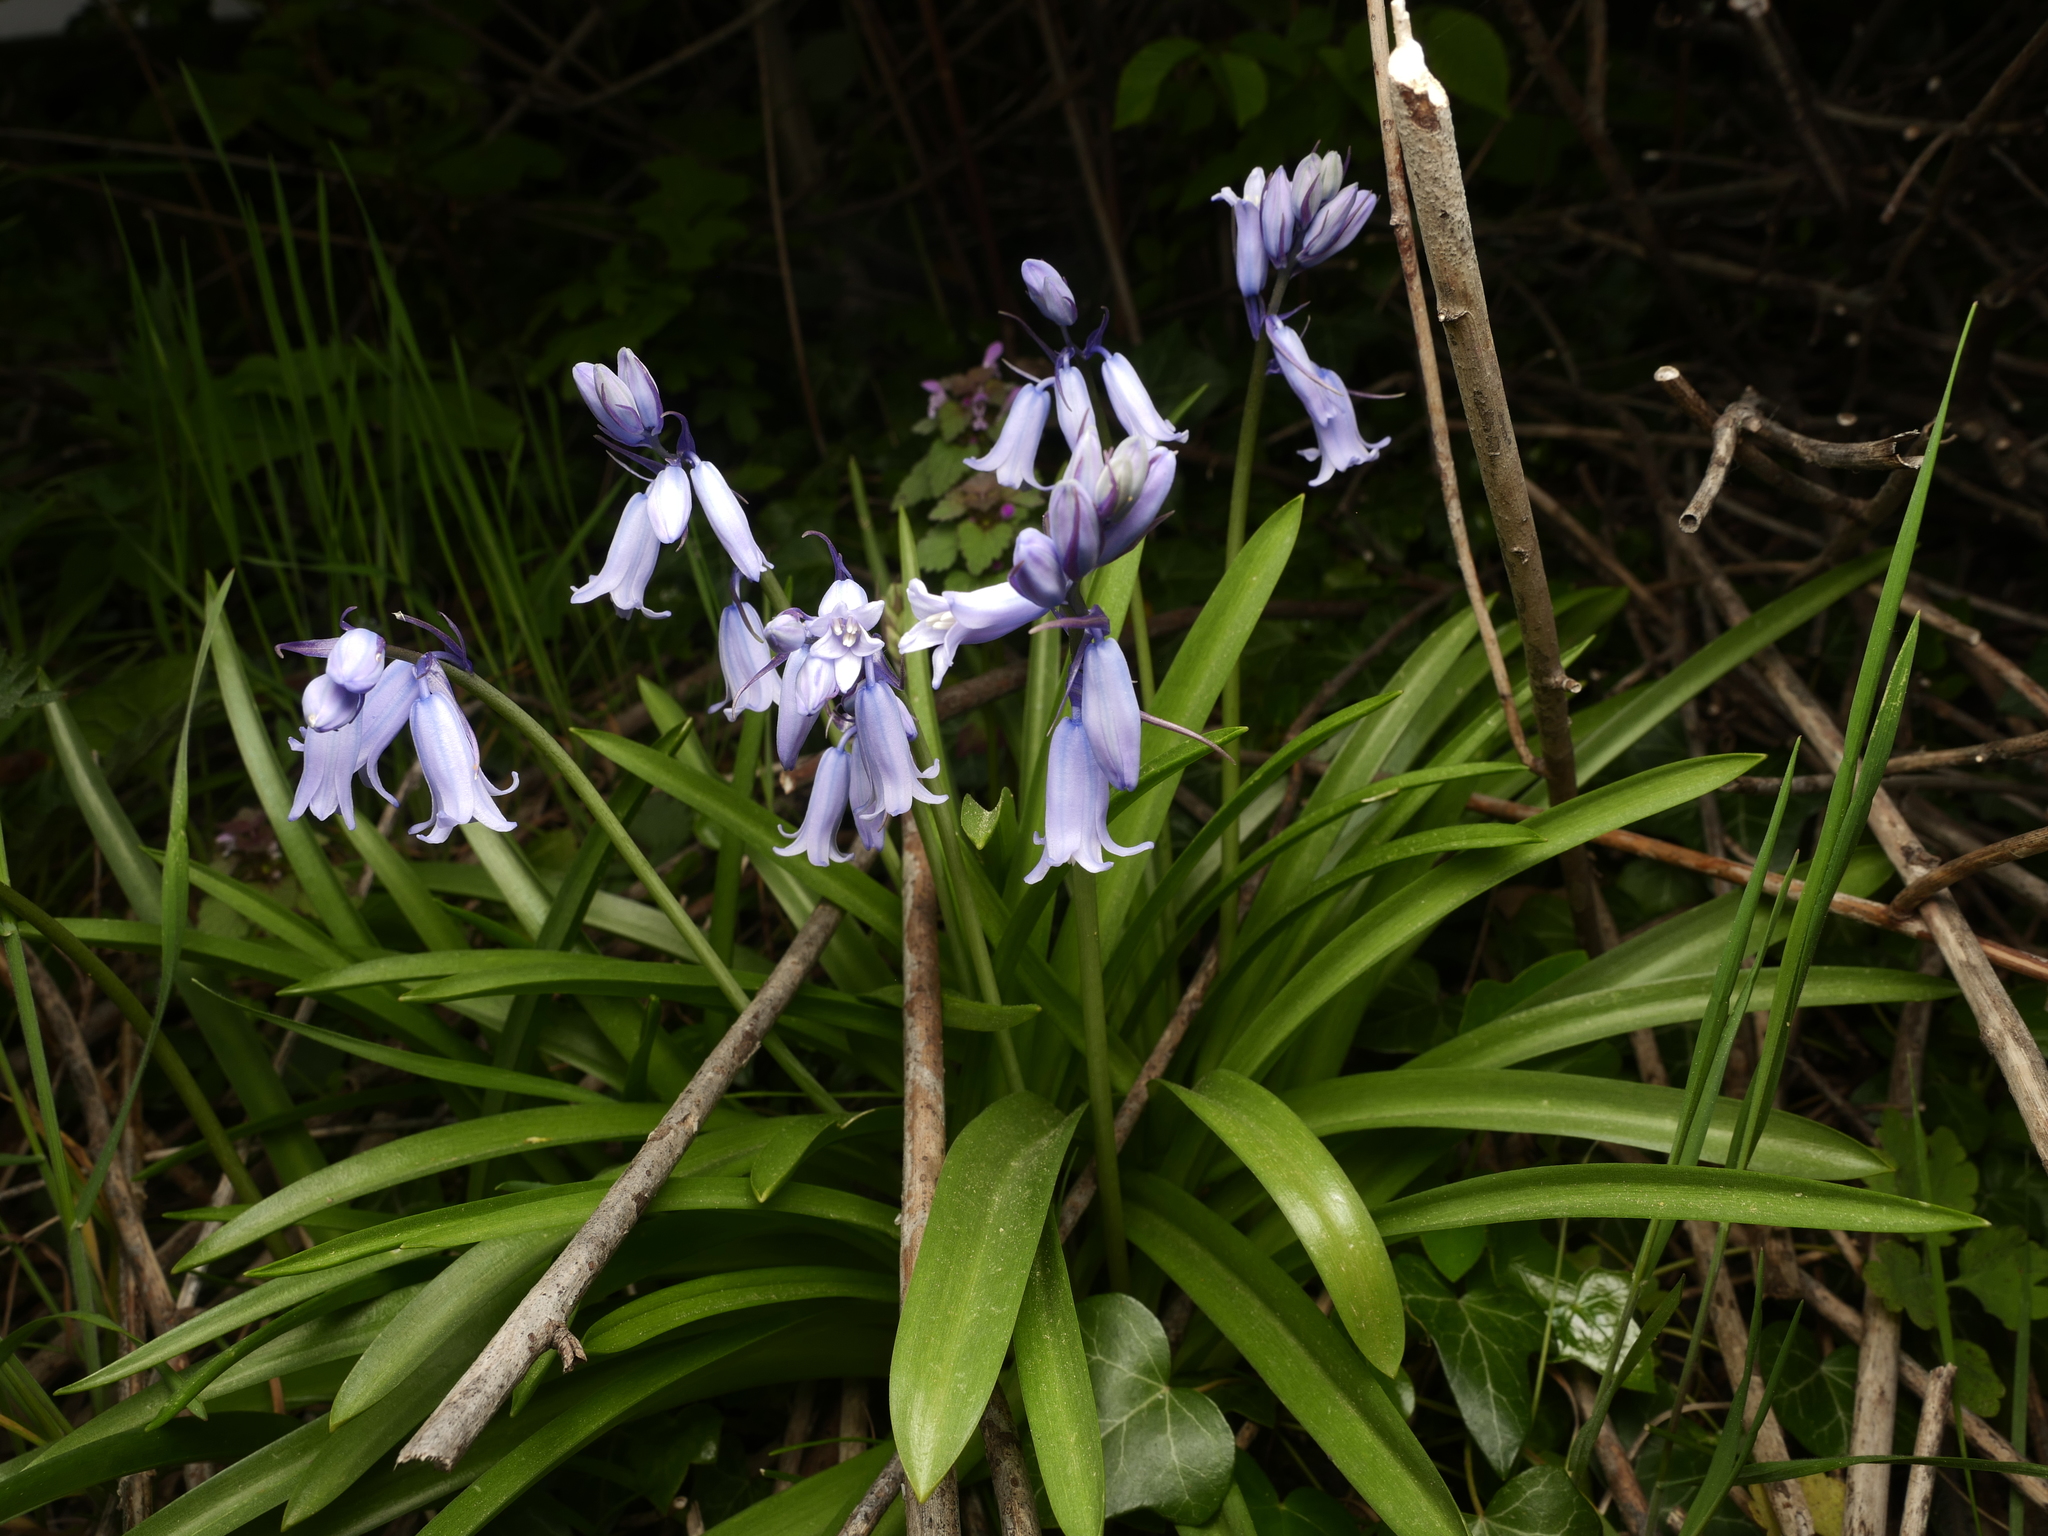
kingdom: Plantae
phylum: Tracheophyta
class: Liliopsida
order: Asparagales
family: Asparagaceae
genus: Hyacinthoides
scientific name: Hyacinthoides non-scripta
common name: Bluebell
